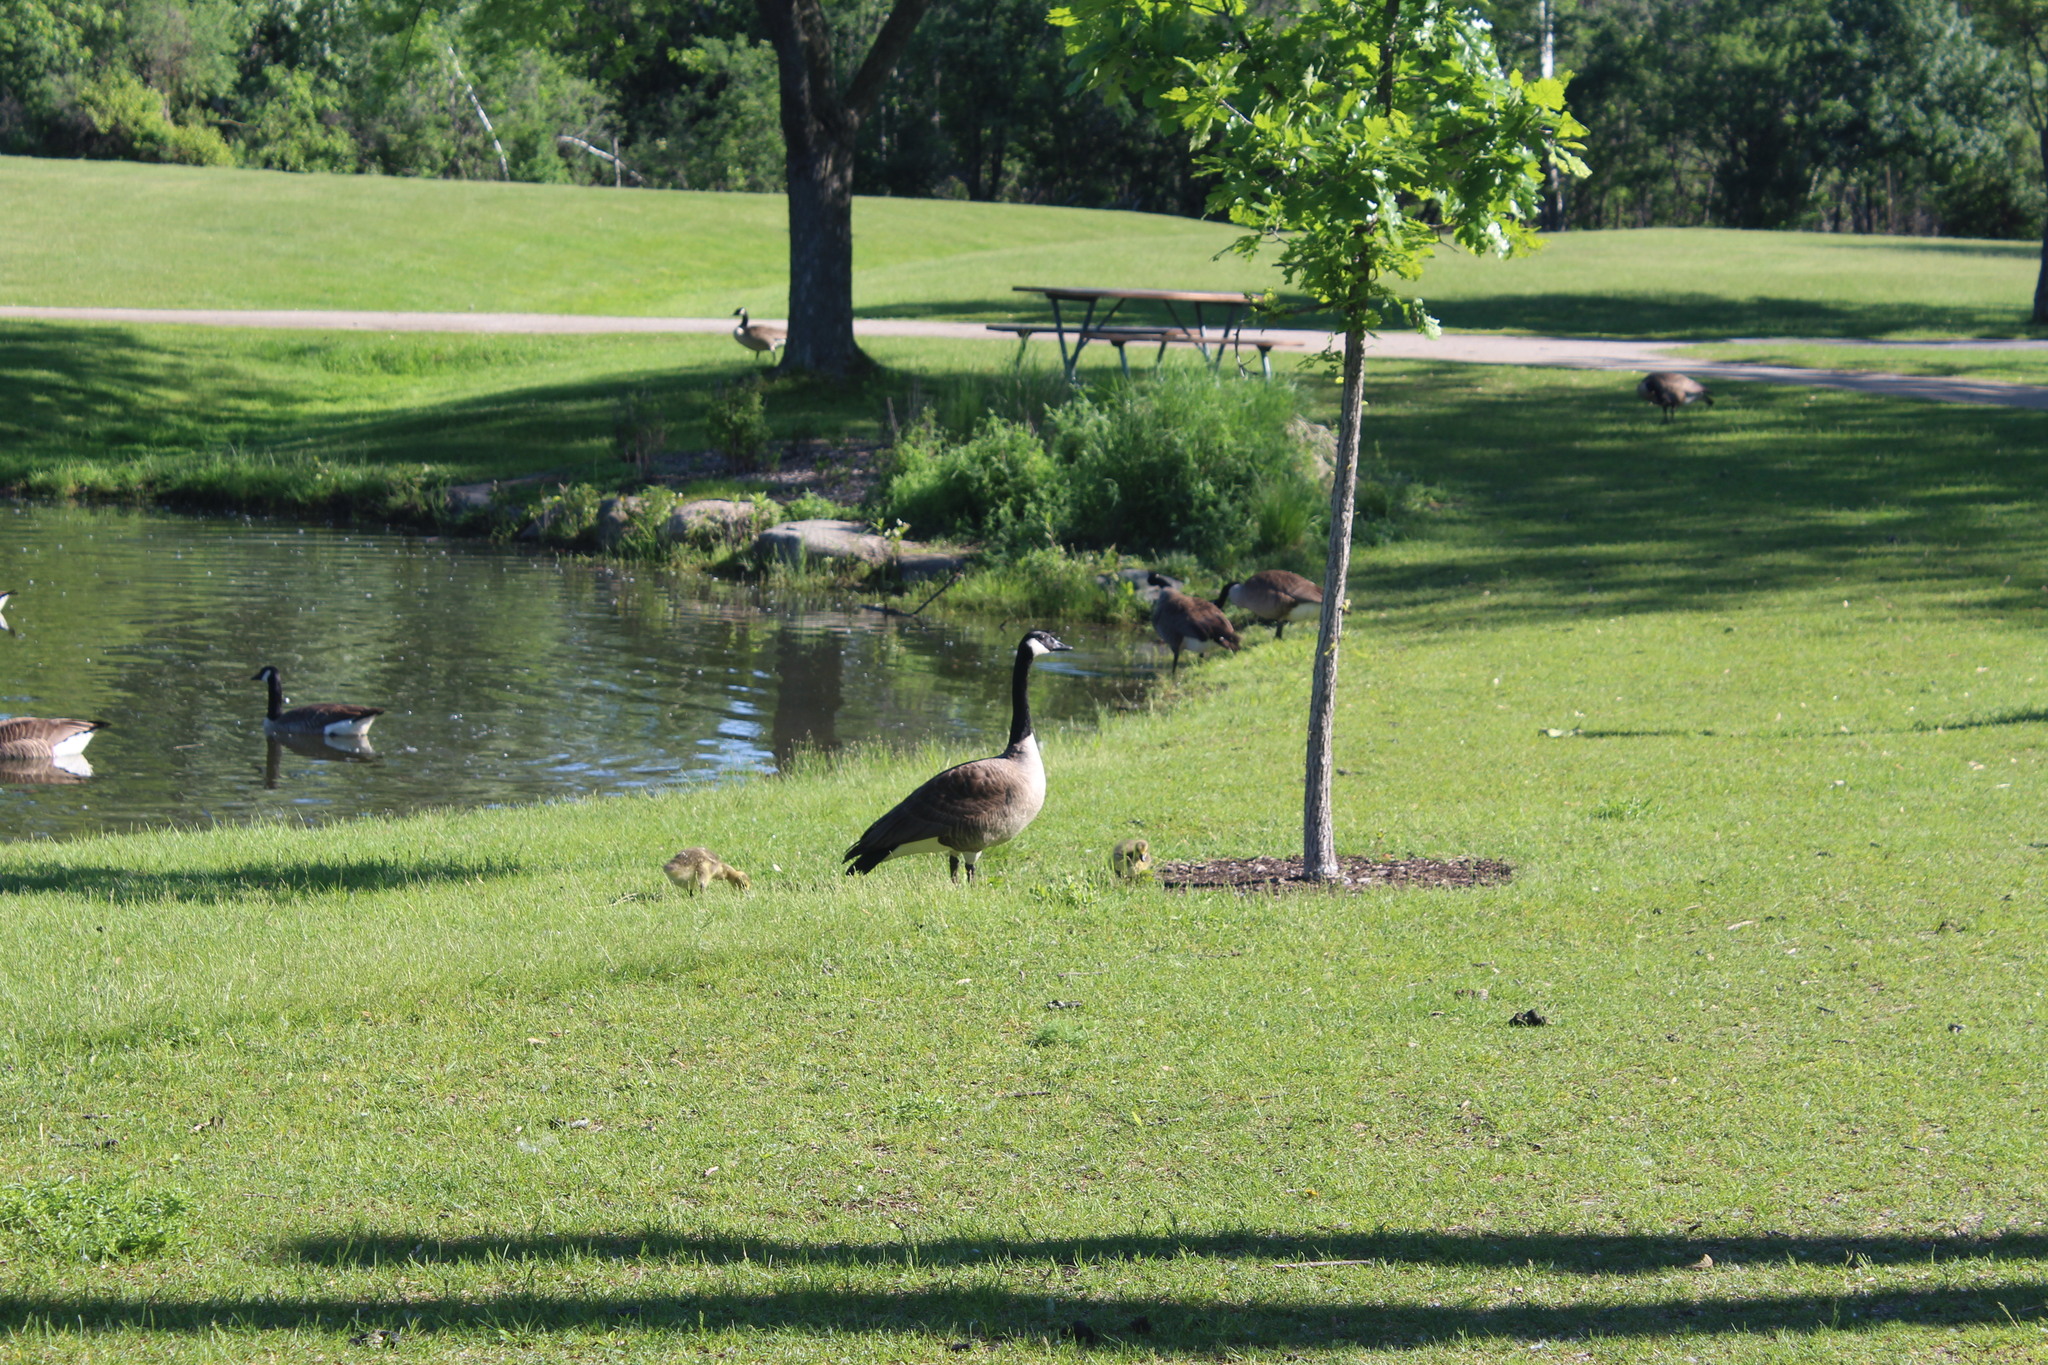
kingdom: Animalia
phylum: Chordata
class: Aves
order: Anseriformes
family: Anatidae
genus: Branta
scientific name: Branta canadensis
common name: Canada goose
